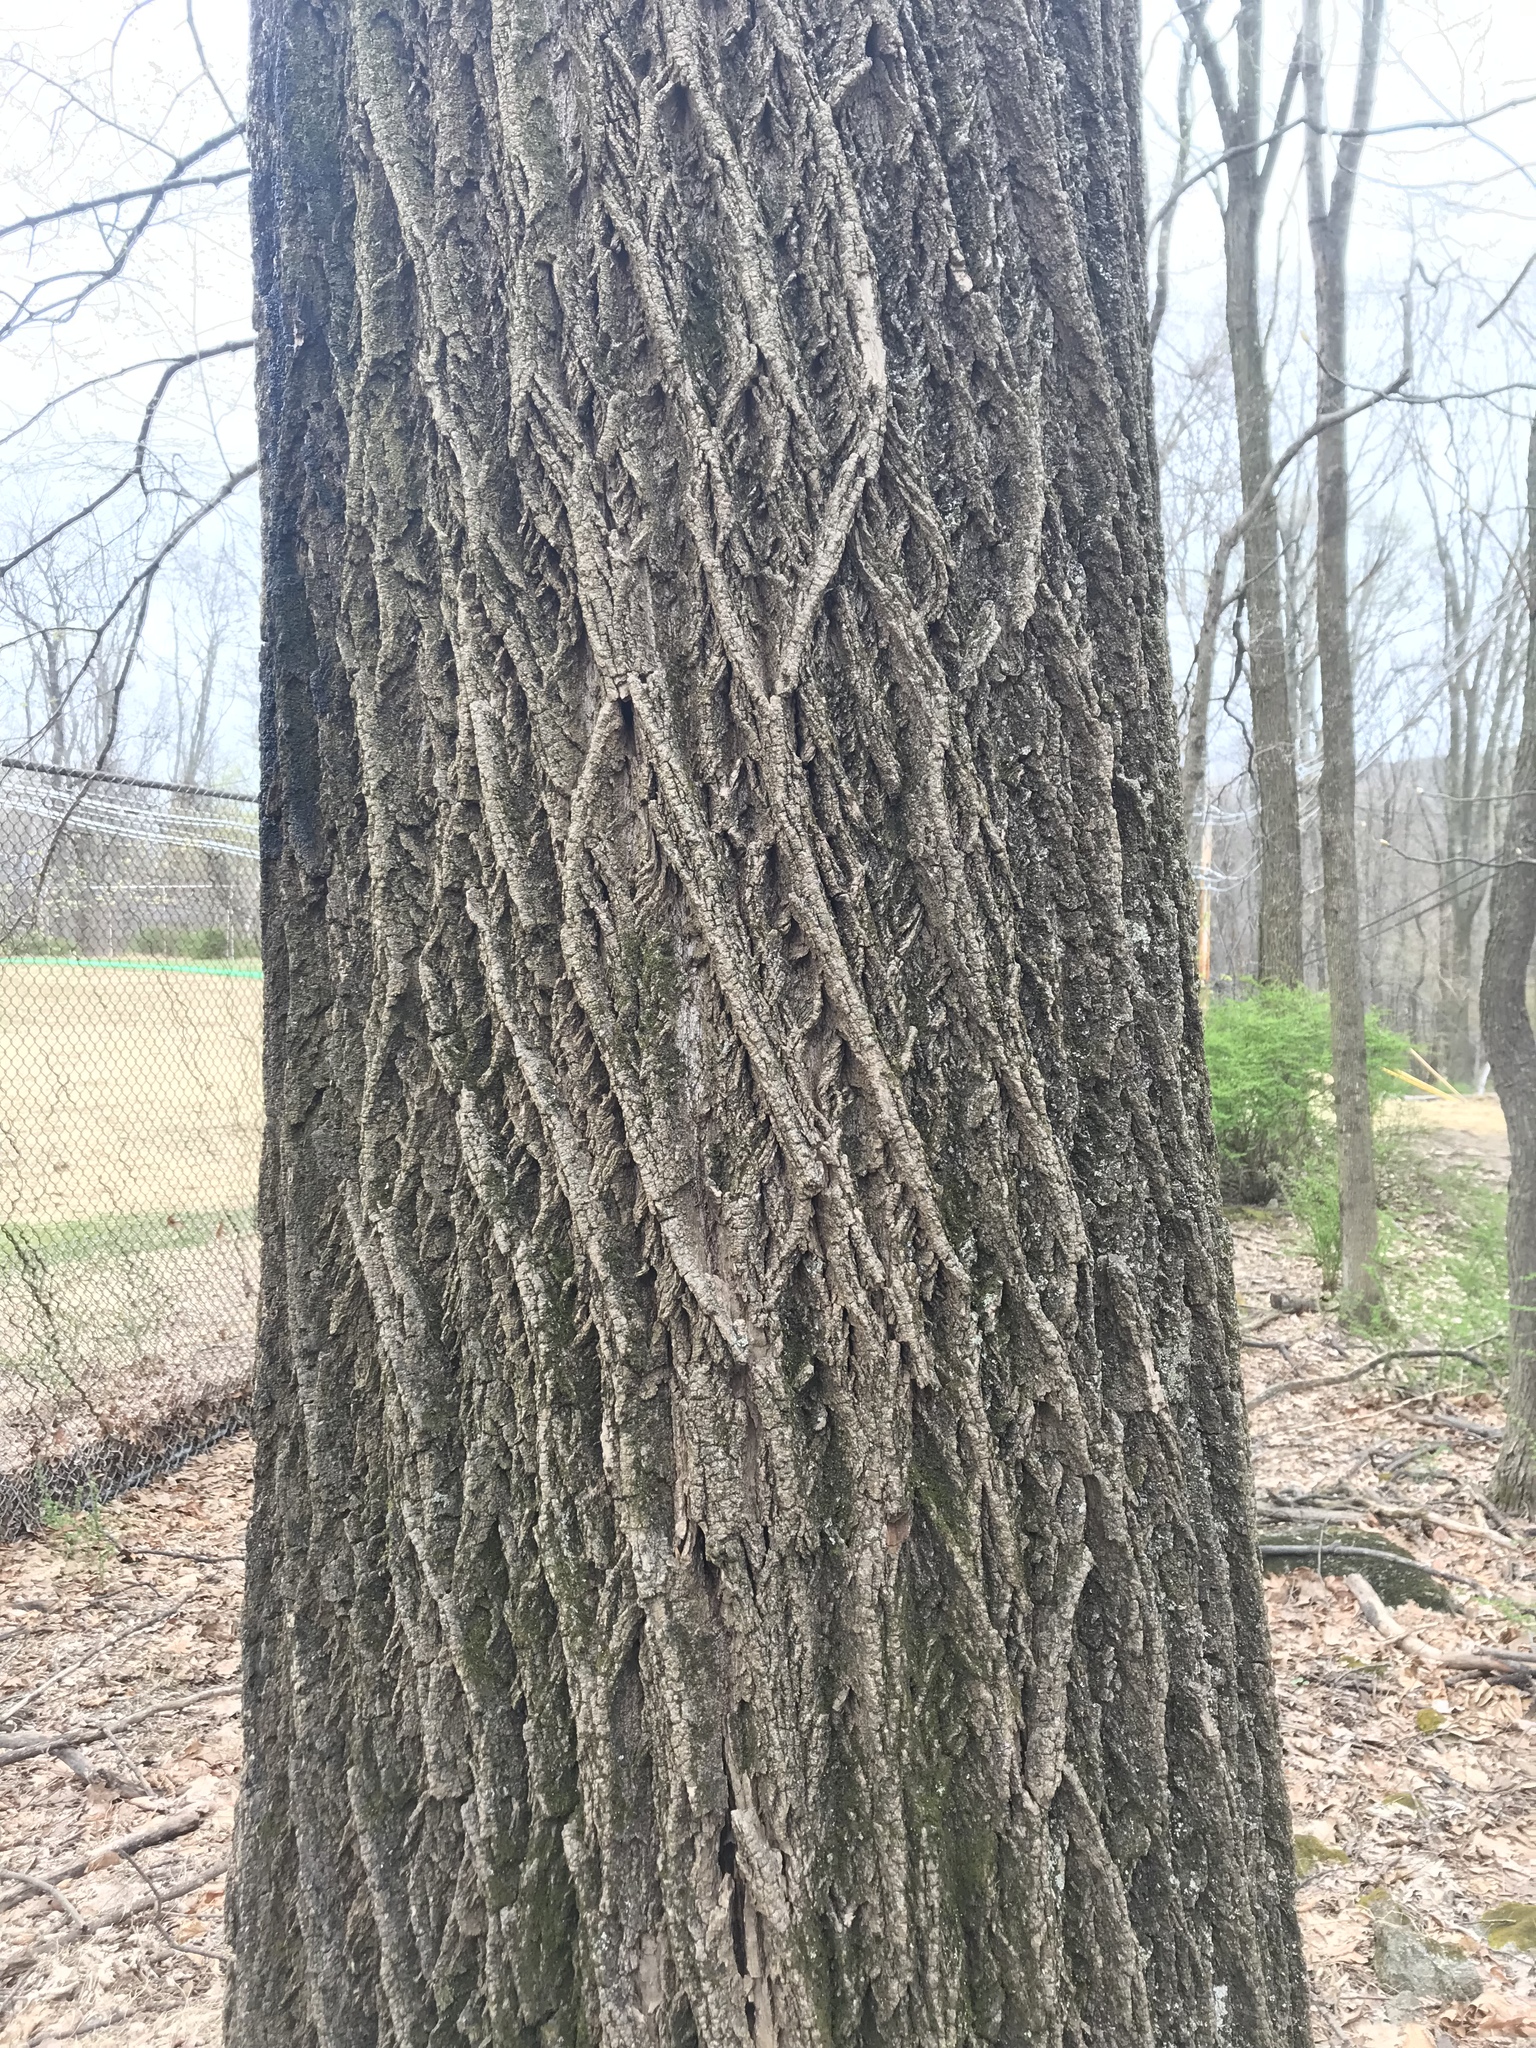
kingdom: Plantae
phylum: Tracheophyta
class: Magnoliopsida
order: Magnoliales
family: Magnoliaceae
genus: Liriodendron
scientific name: Liriodendron tulipifera
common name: Tulip tree
